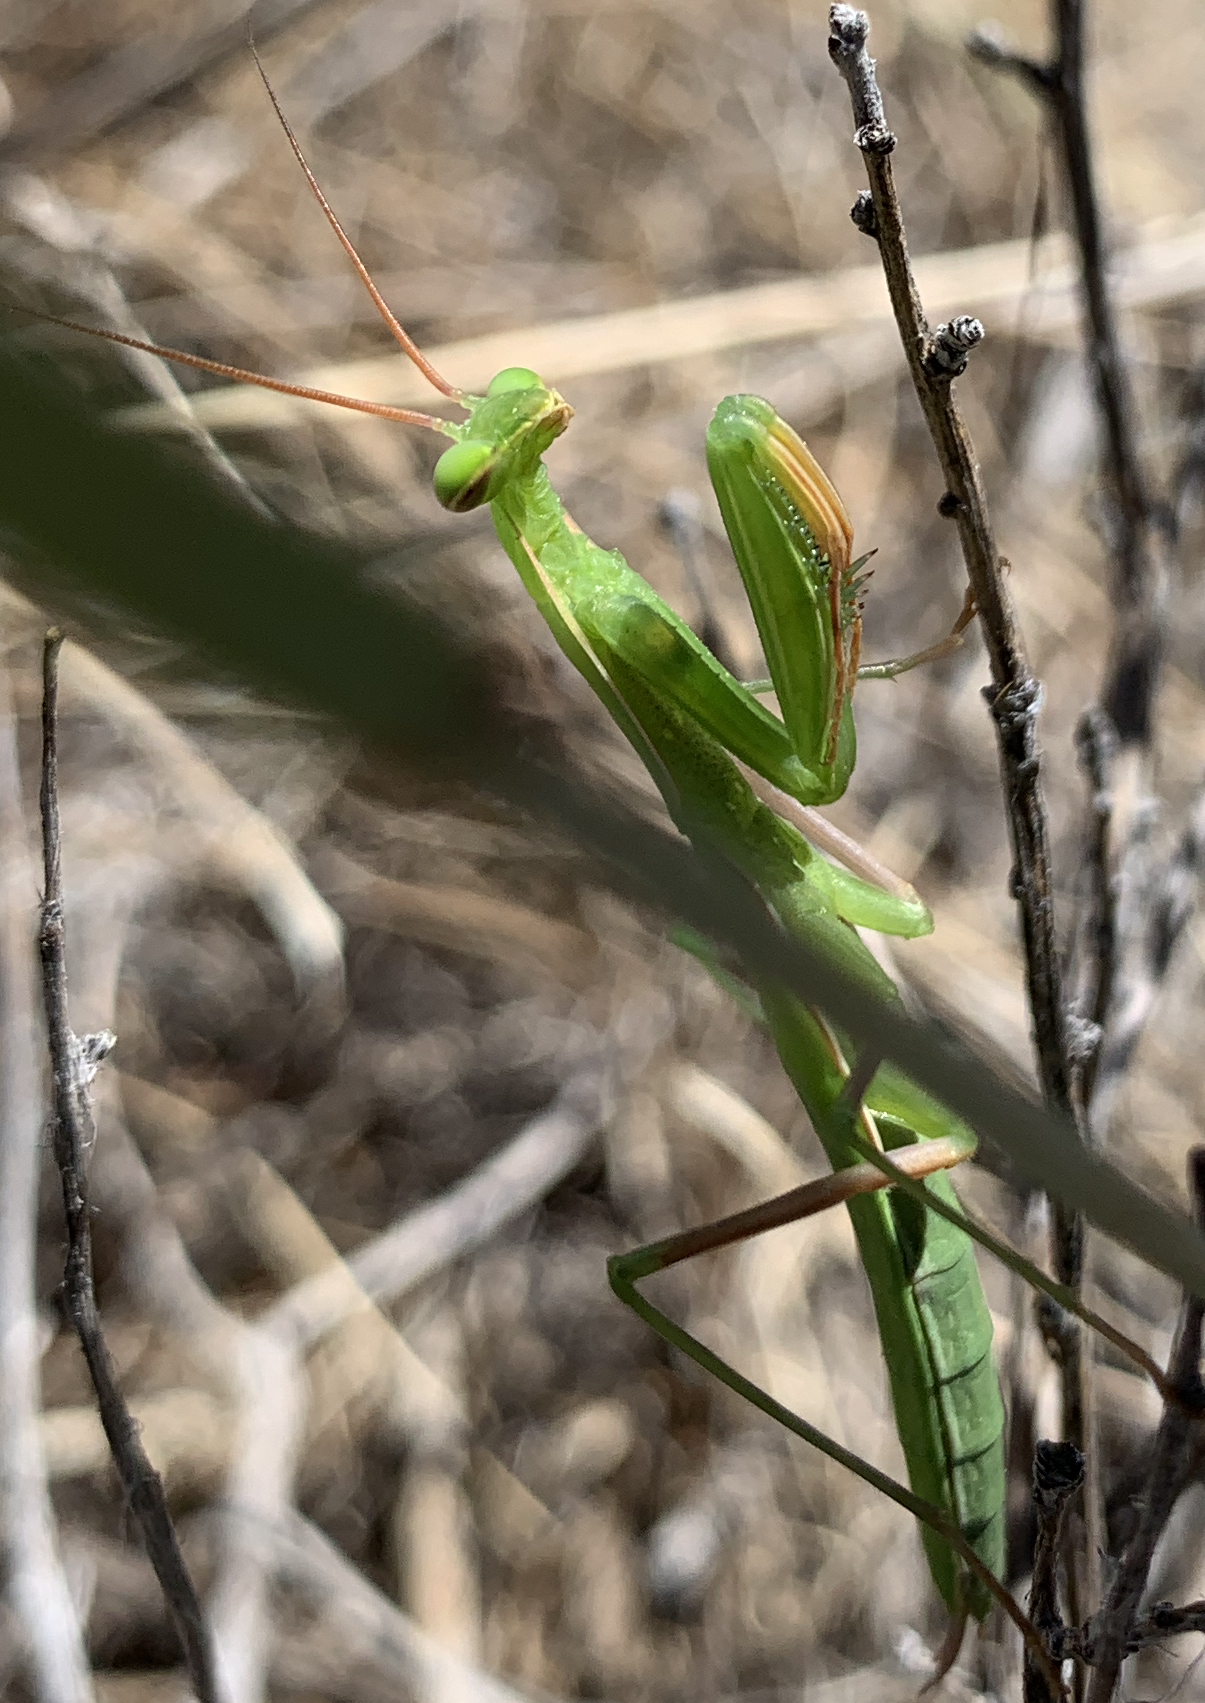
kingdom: Animalia
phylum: Arthropoda
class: Insecta
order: Mantodea
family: Mantidae
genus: Mantis
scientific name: Mantis religiosa
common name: Praying mantis
